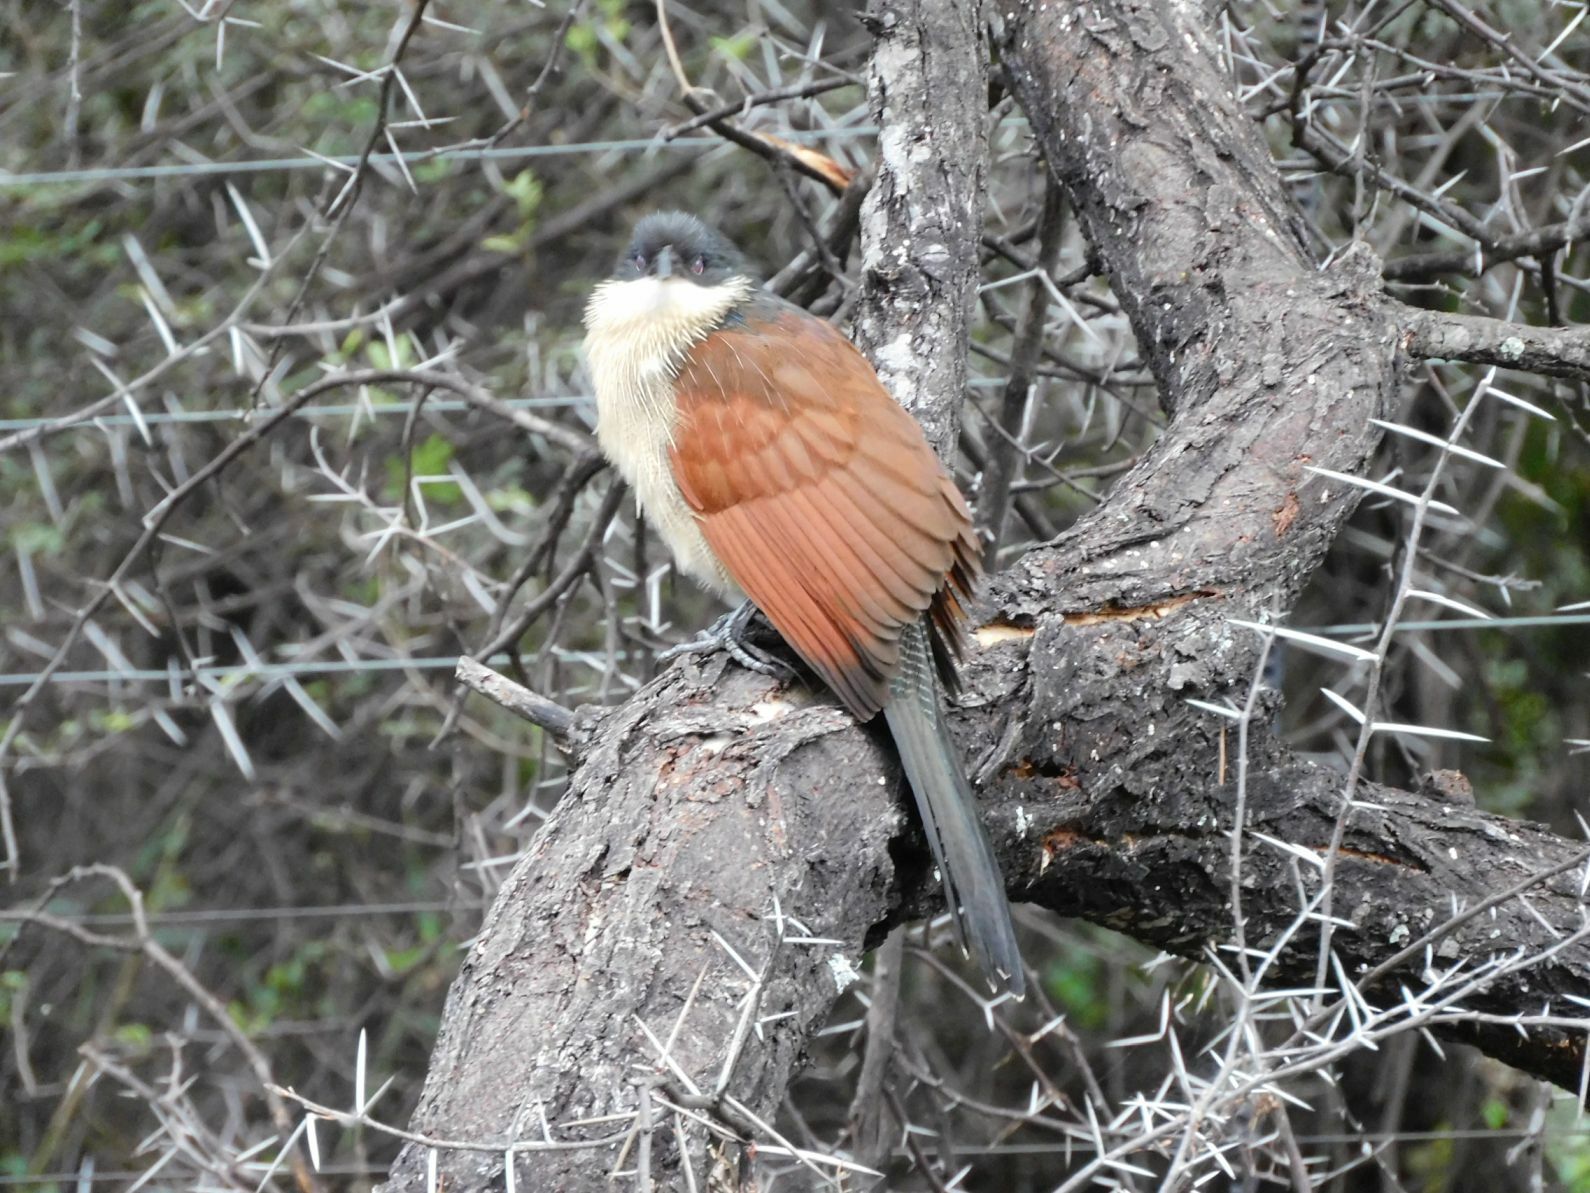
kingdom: Animalia
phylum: Chordata
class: Aves
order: Cuculiformes
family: Cuculidae
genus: Centropus
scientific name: Centropus superciliosus
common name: White-browed coucal
